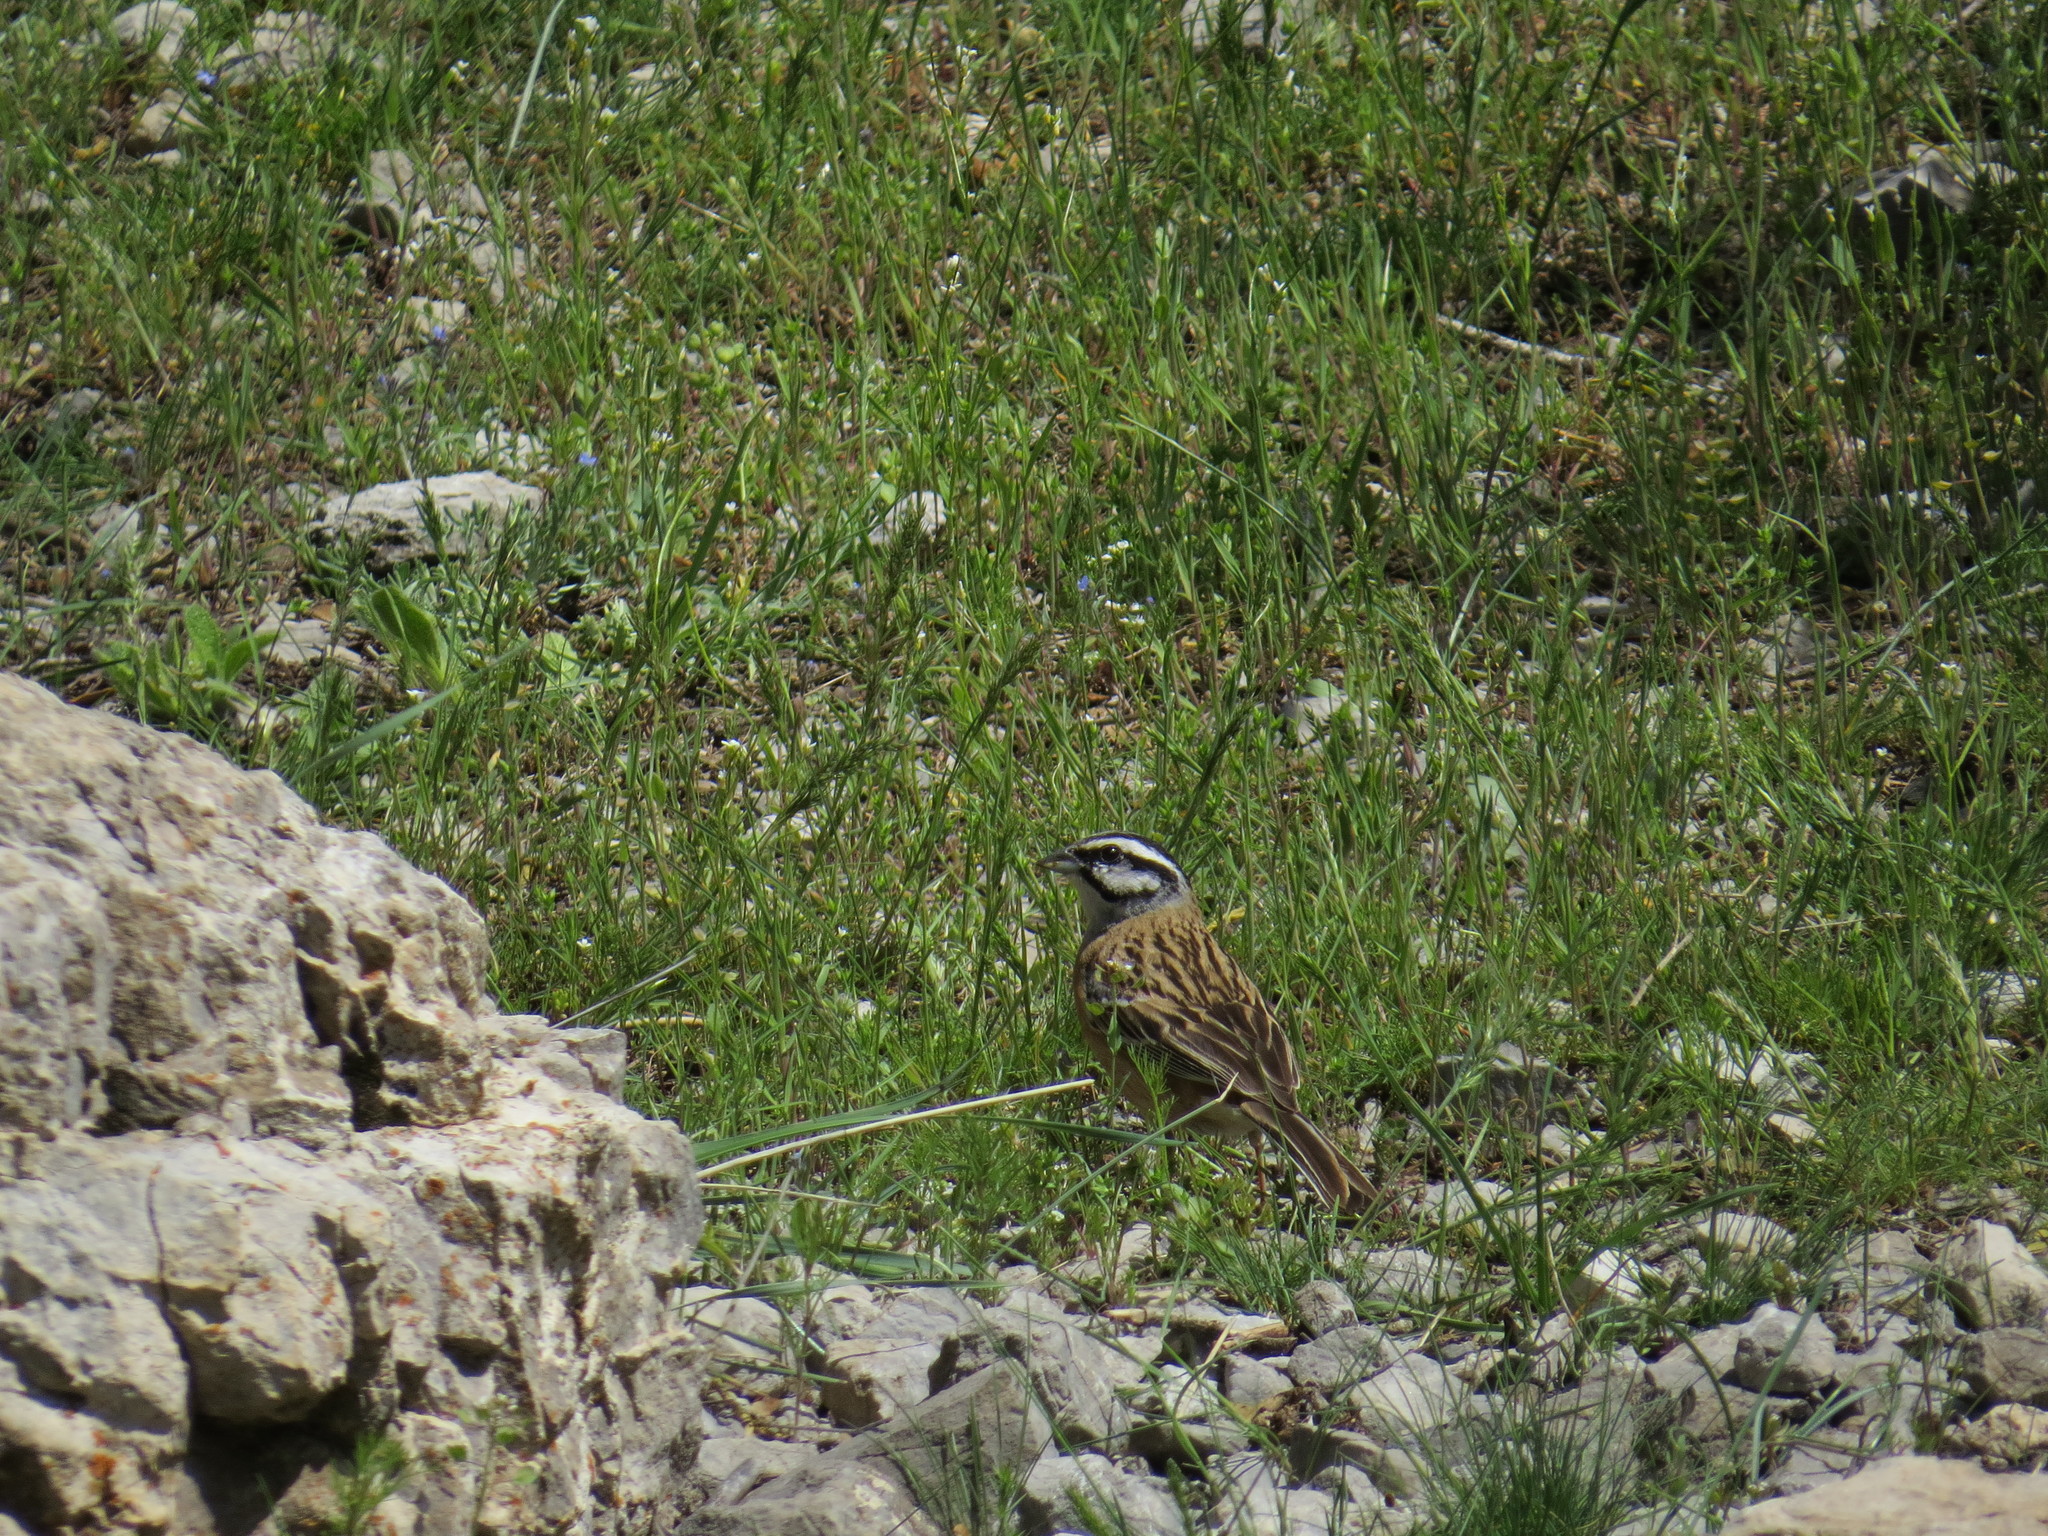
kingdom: Animalia
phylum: Chordata
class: Aves
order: Passeriformes
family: Emberizidae
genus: Emberiza
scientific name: Emberiza cia
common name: Rock bunting
